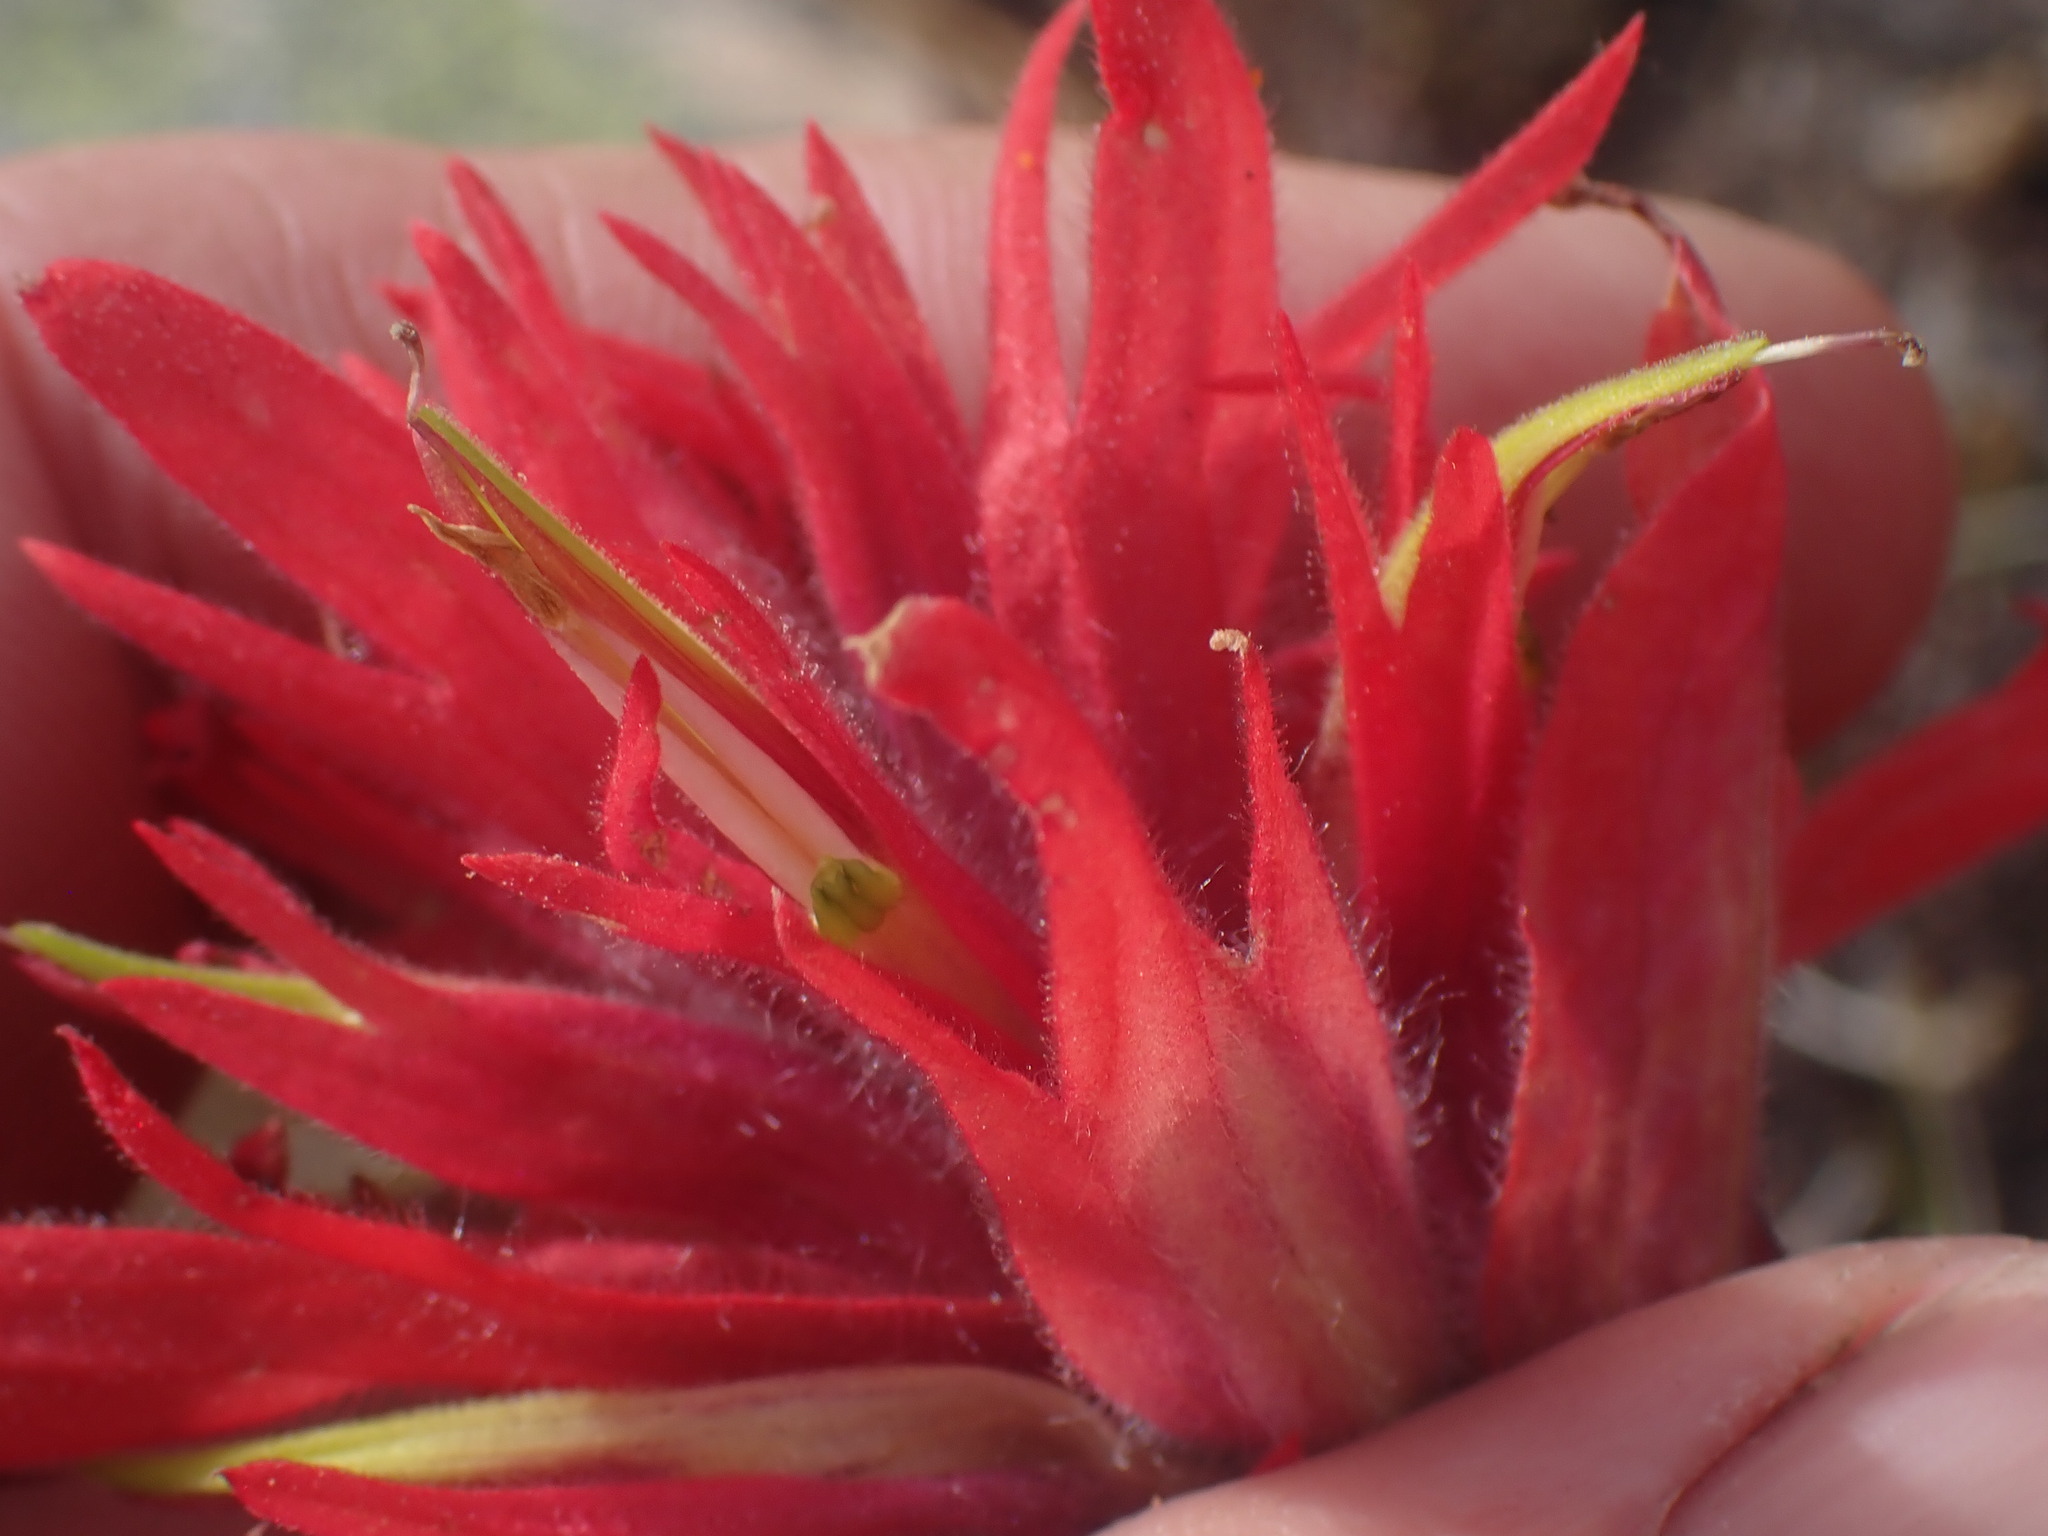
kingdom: Plantae
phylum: Tracheophyta
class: Magnoliopsida
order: Lamiales
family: Orobanchaceae
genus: Castilleja
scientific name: Castilleja miniata
